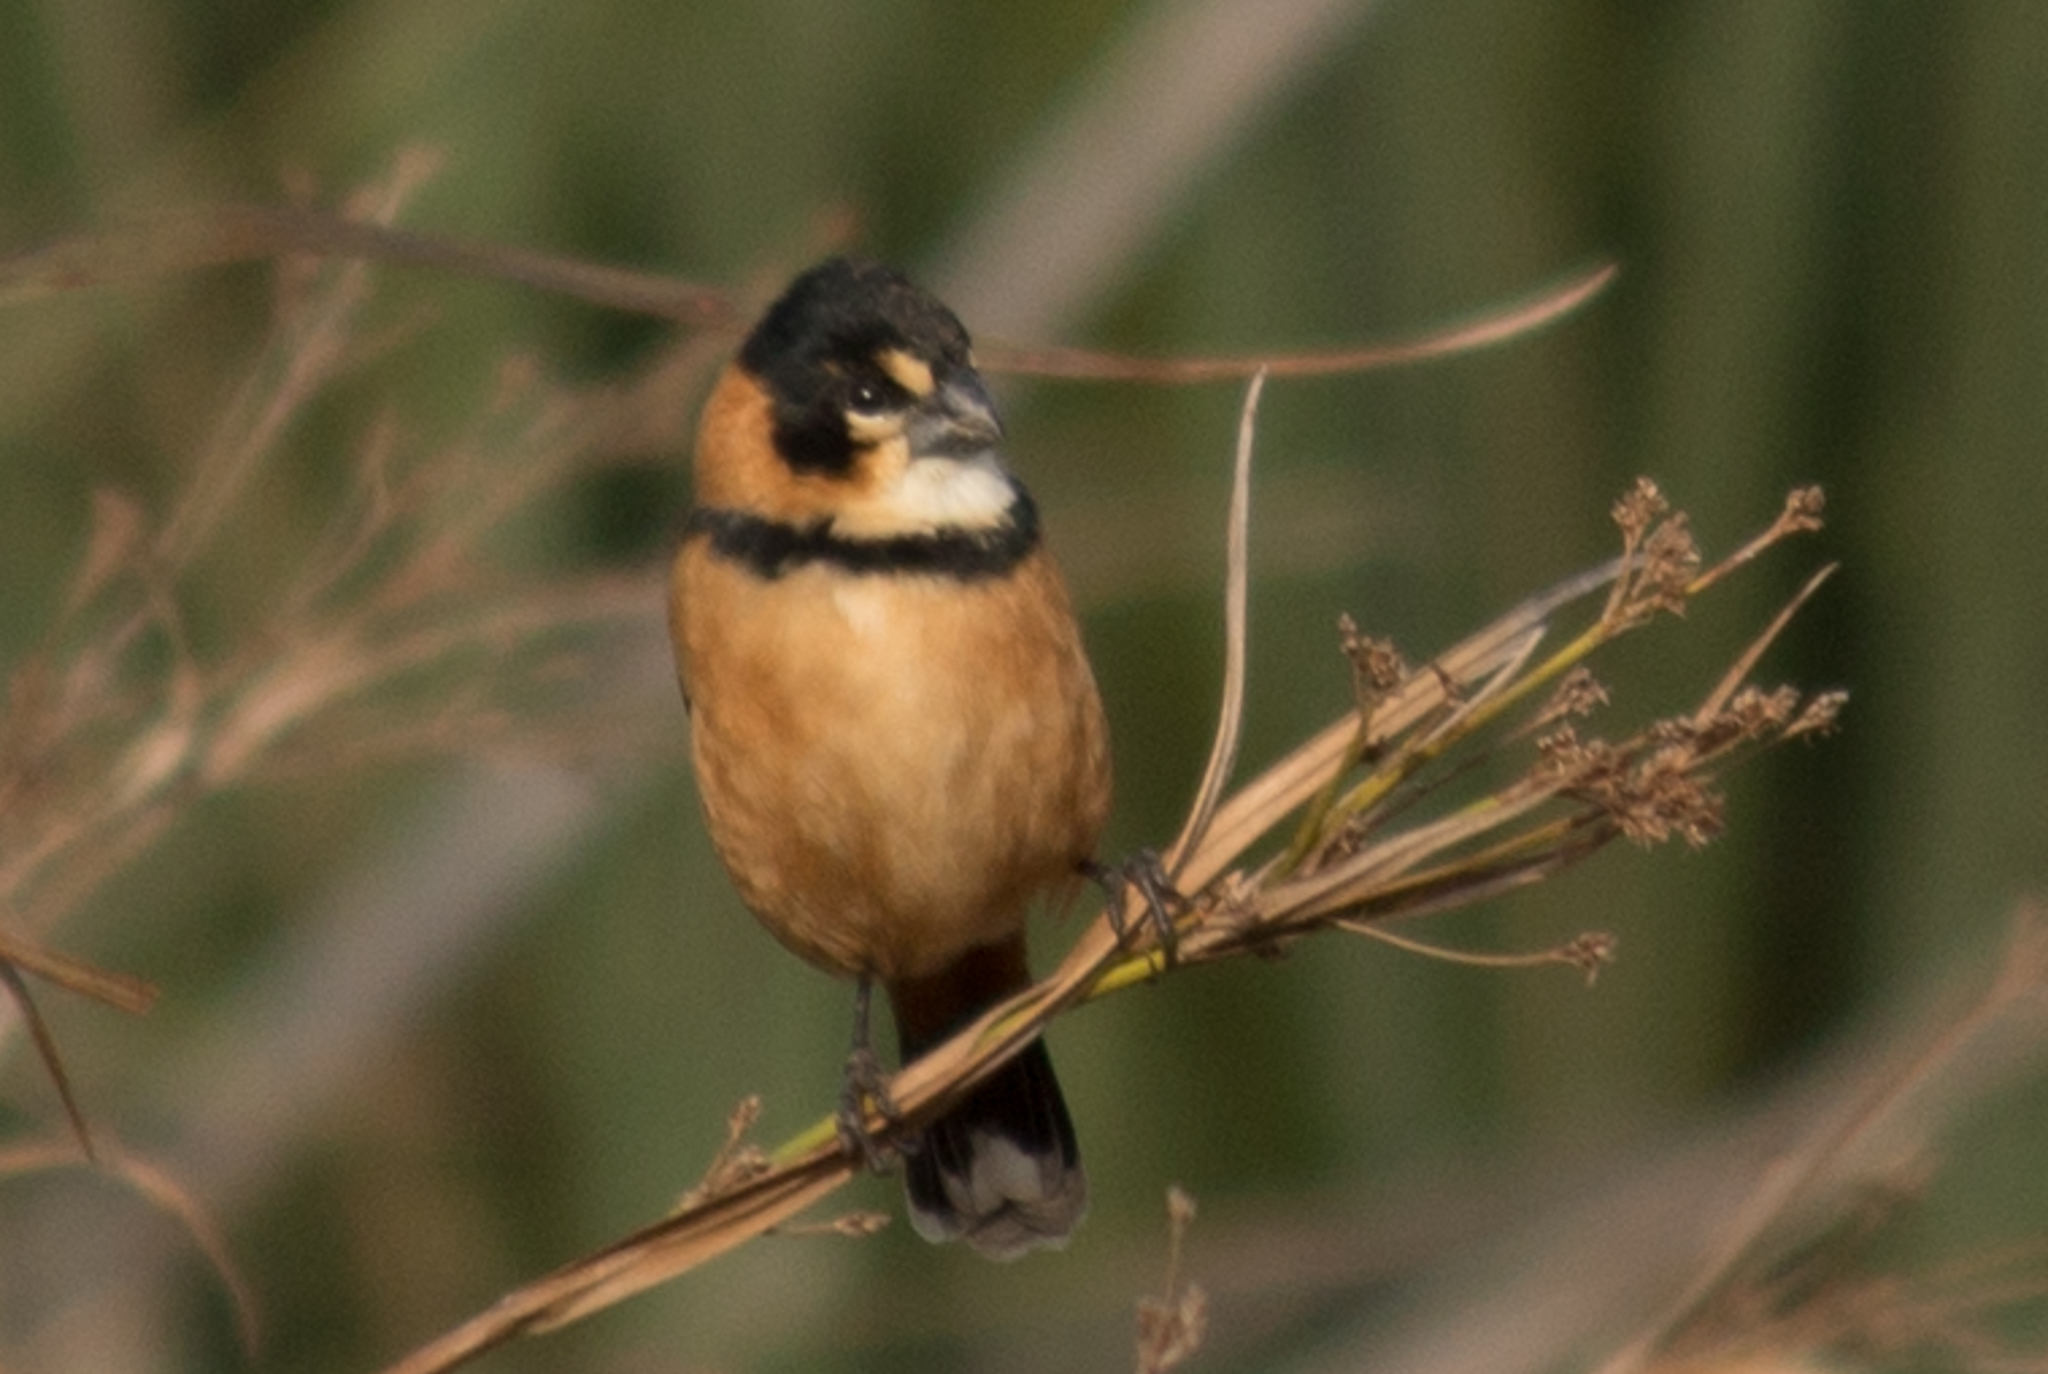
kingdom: Animalia
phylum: Chordata
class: Aves
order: Passeriformes
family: Thraupidae
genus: Sporophila
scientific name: Sporophila collaris
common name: Rusty-collared seedeater
